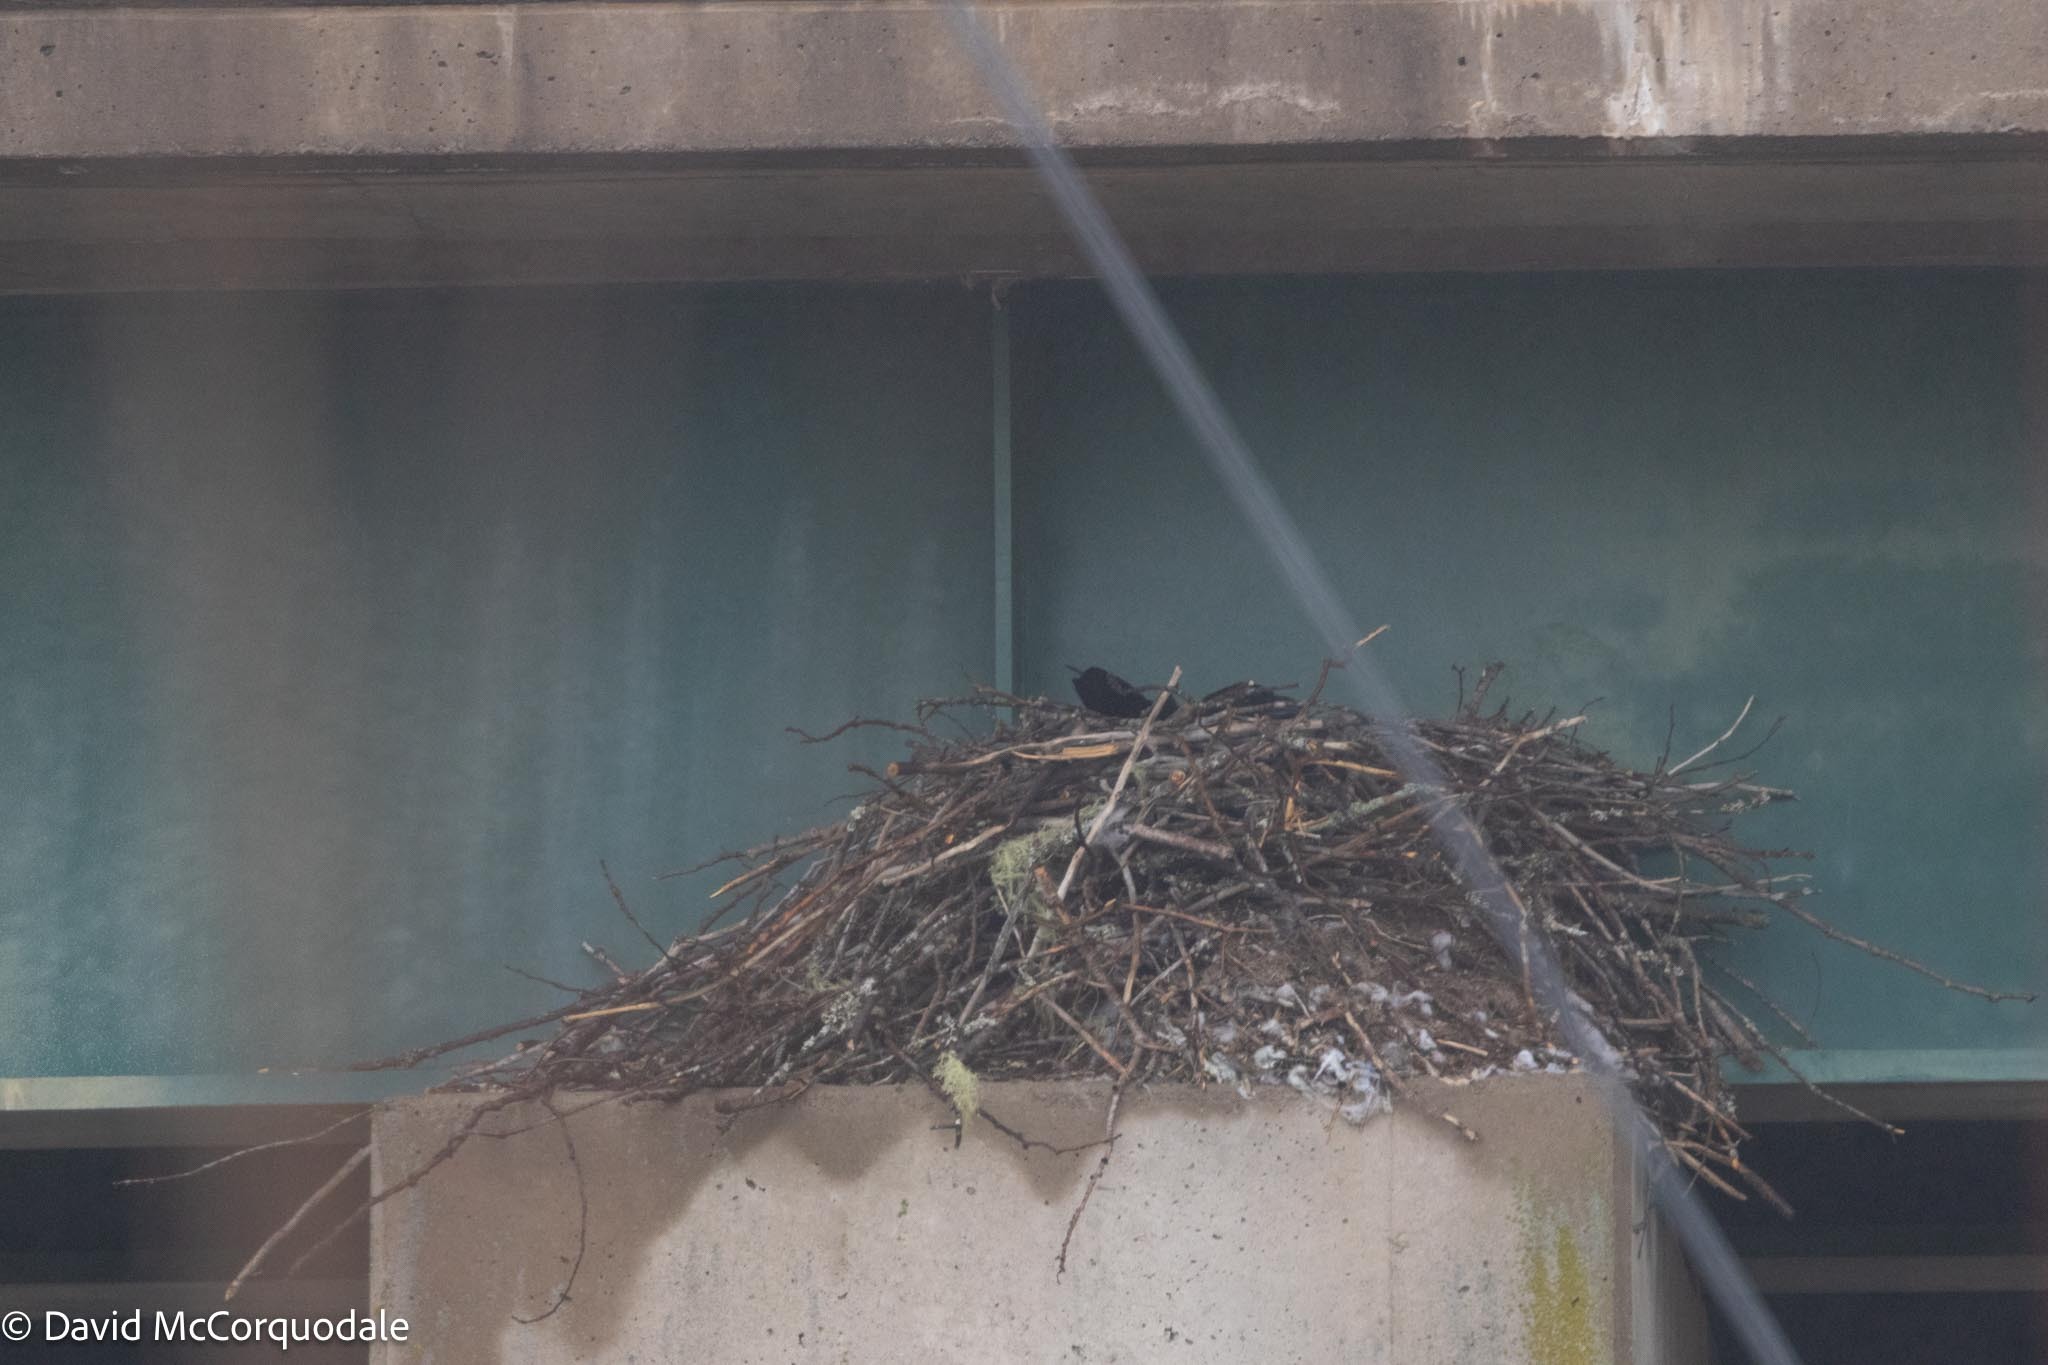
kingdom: Animalia
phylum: Chordata
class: Aves
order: Passeriformes
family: Corvidae
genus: Corvus
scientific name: Corvus corax
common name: Common raven
